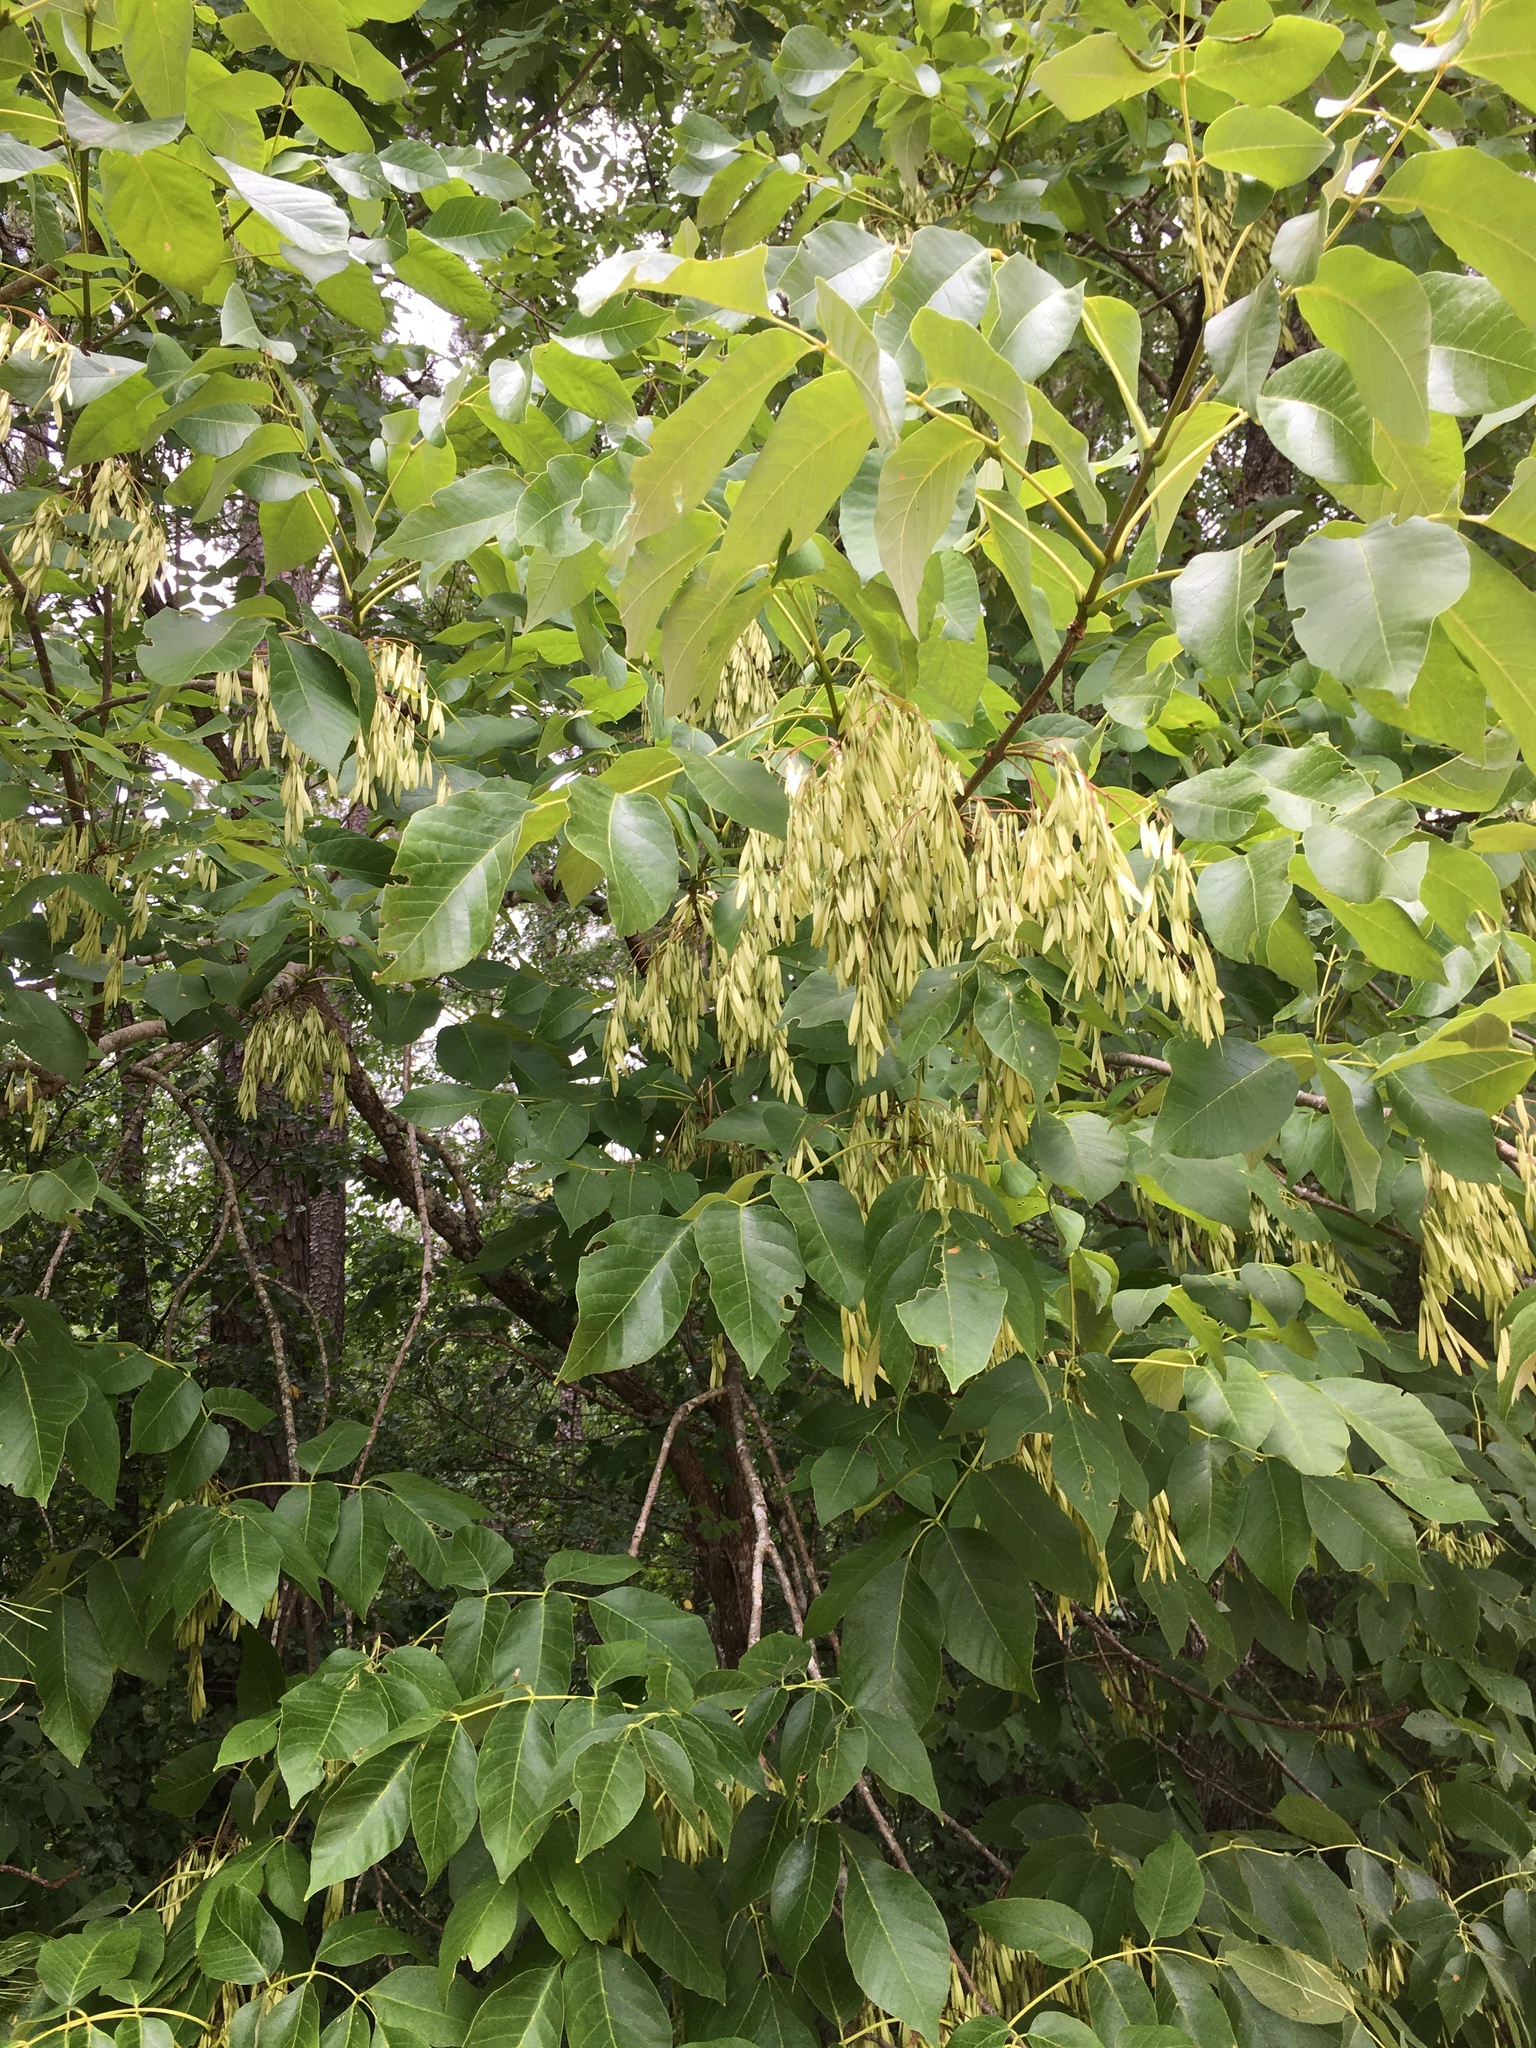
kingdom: Plantae
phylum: Tracheophyta
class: Magnoliopsida
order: Lamiales
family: Oleaceae
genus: Fraxinus
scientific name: Fraxinus americana
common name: White ash
